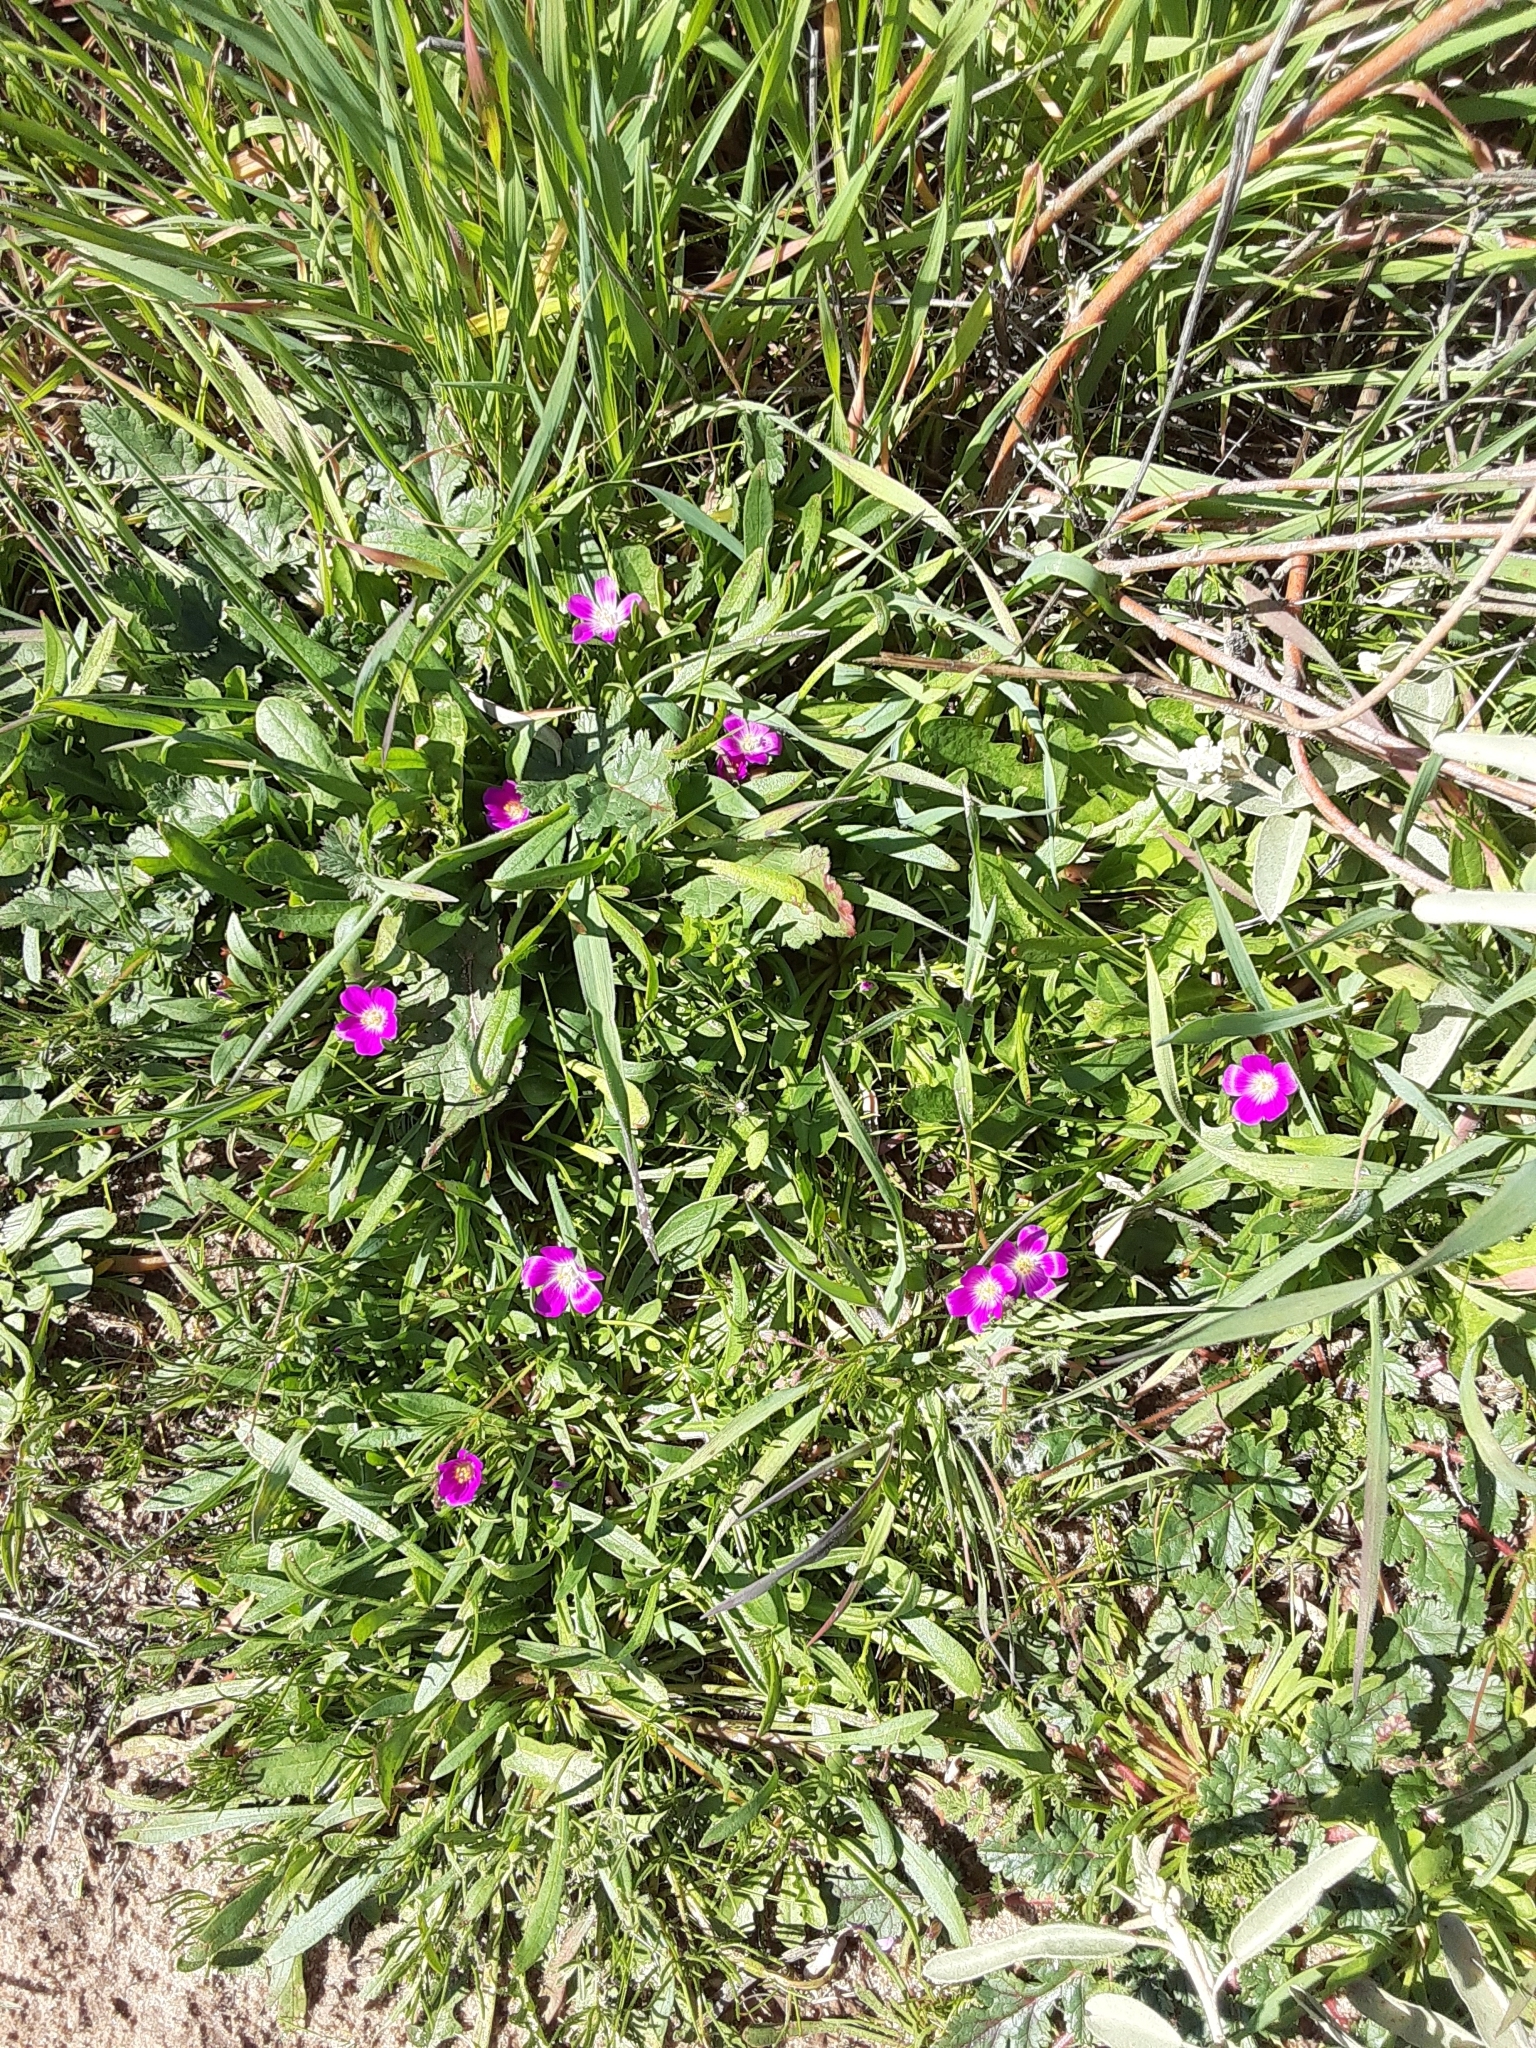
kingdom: Plantae
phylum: Tracheophyta
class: Magnoliopsida
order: Caryophyllales
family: Montiaceae
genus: Calandrinia
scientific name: Calandrinia menziesii
